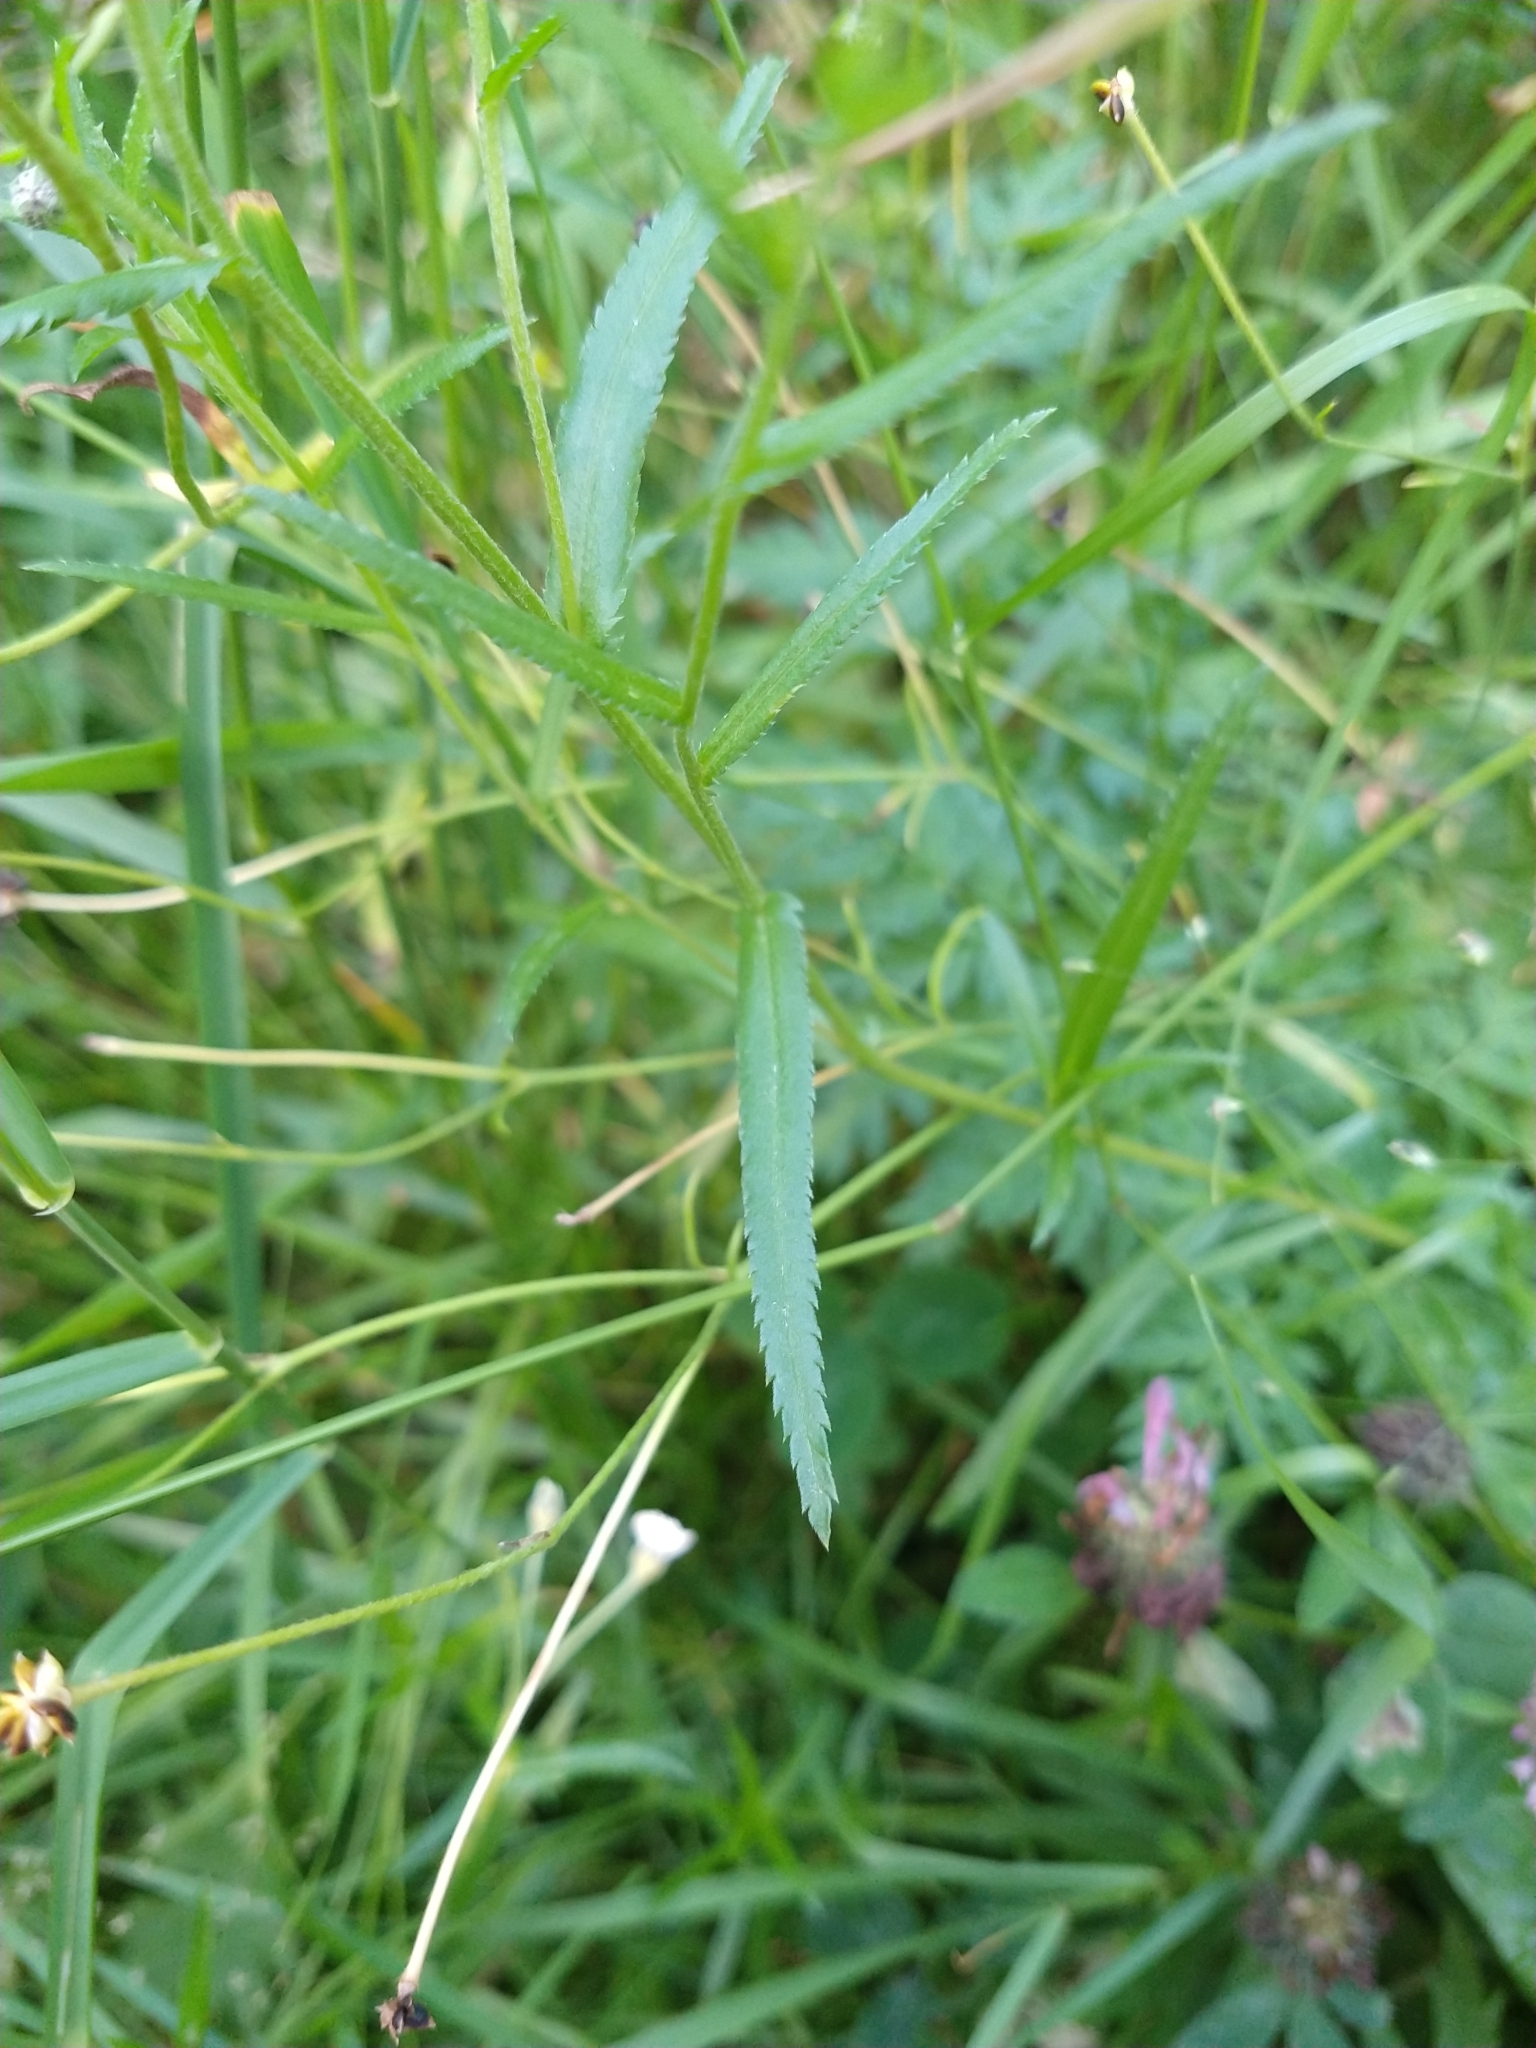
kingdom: Plantae
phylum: Tracheophyta
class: Magnoliopsida
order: Asterales
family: Asteraceae
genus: Achillea
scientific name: Achillea ptarmica
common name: Sneezeweed
